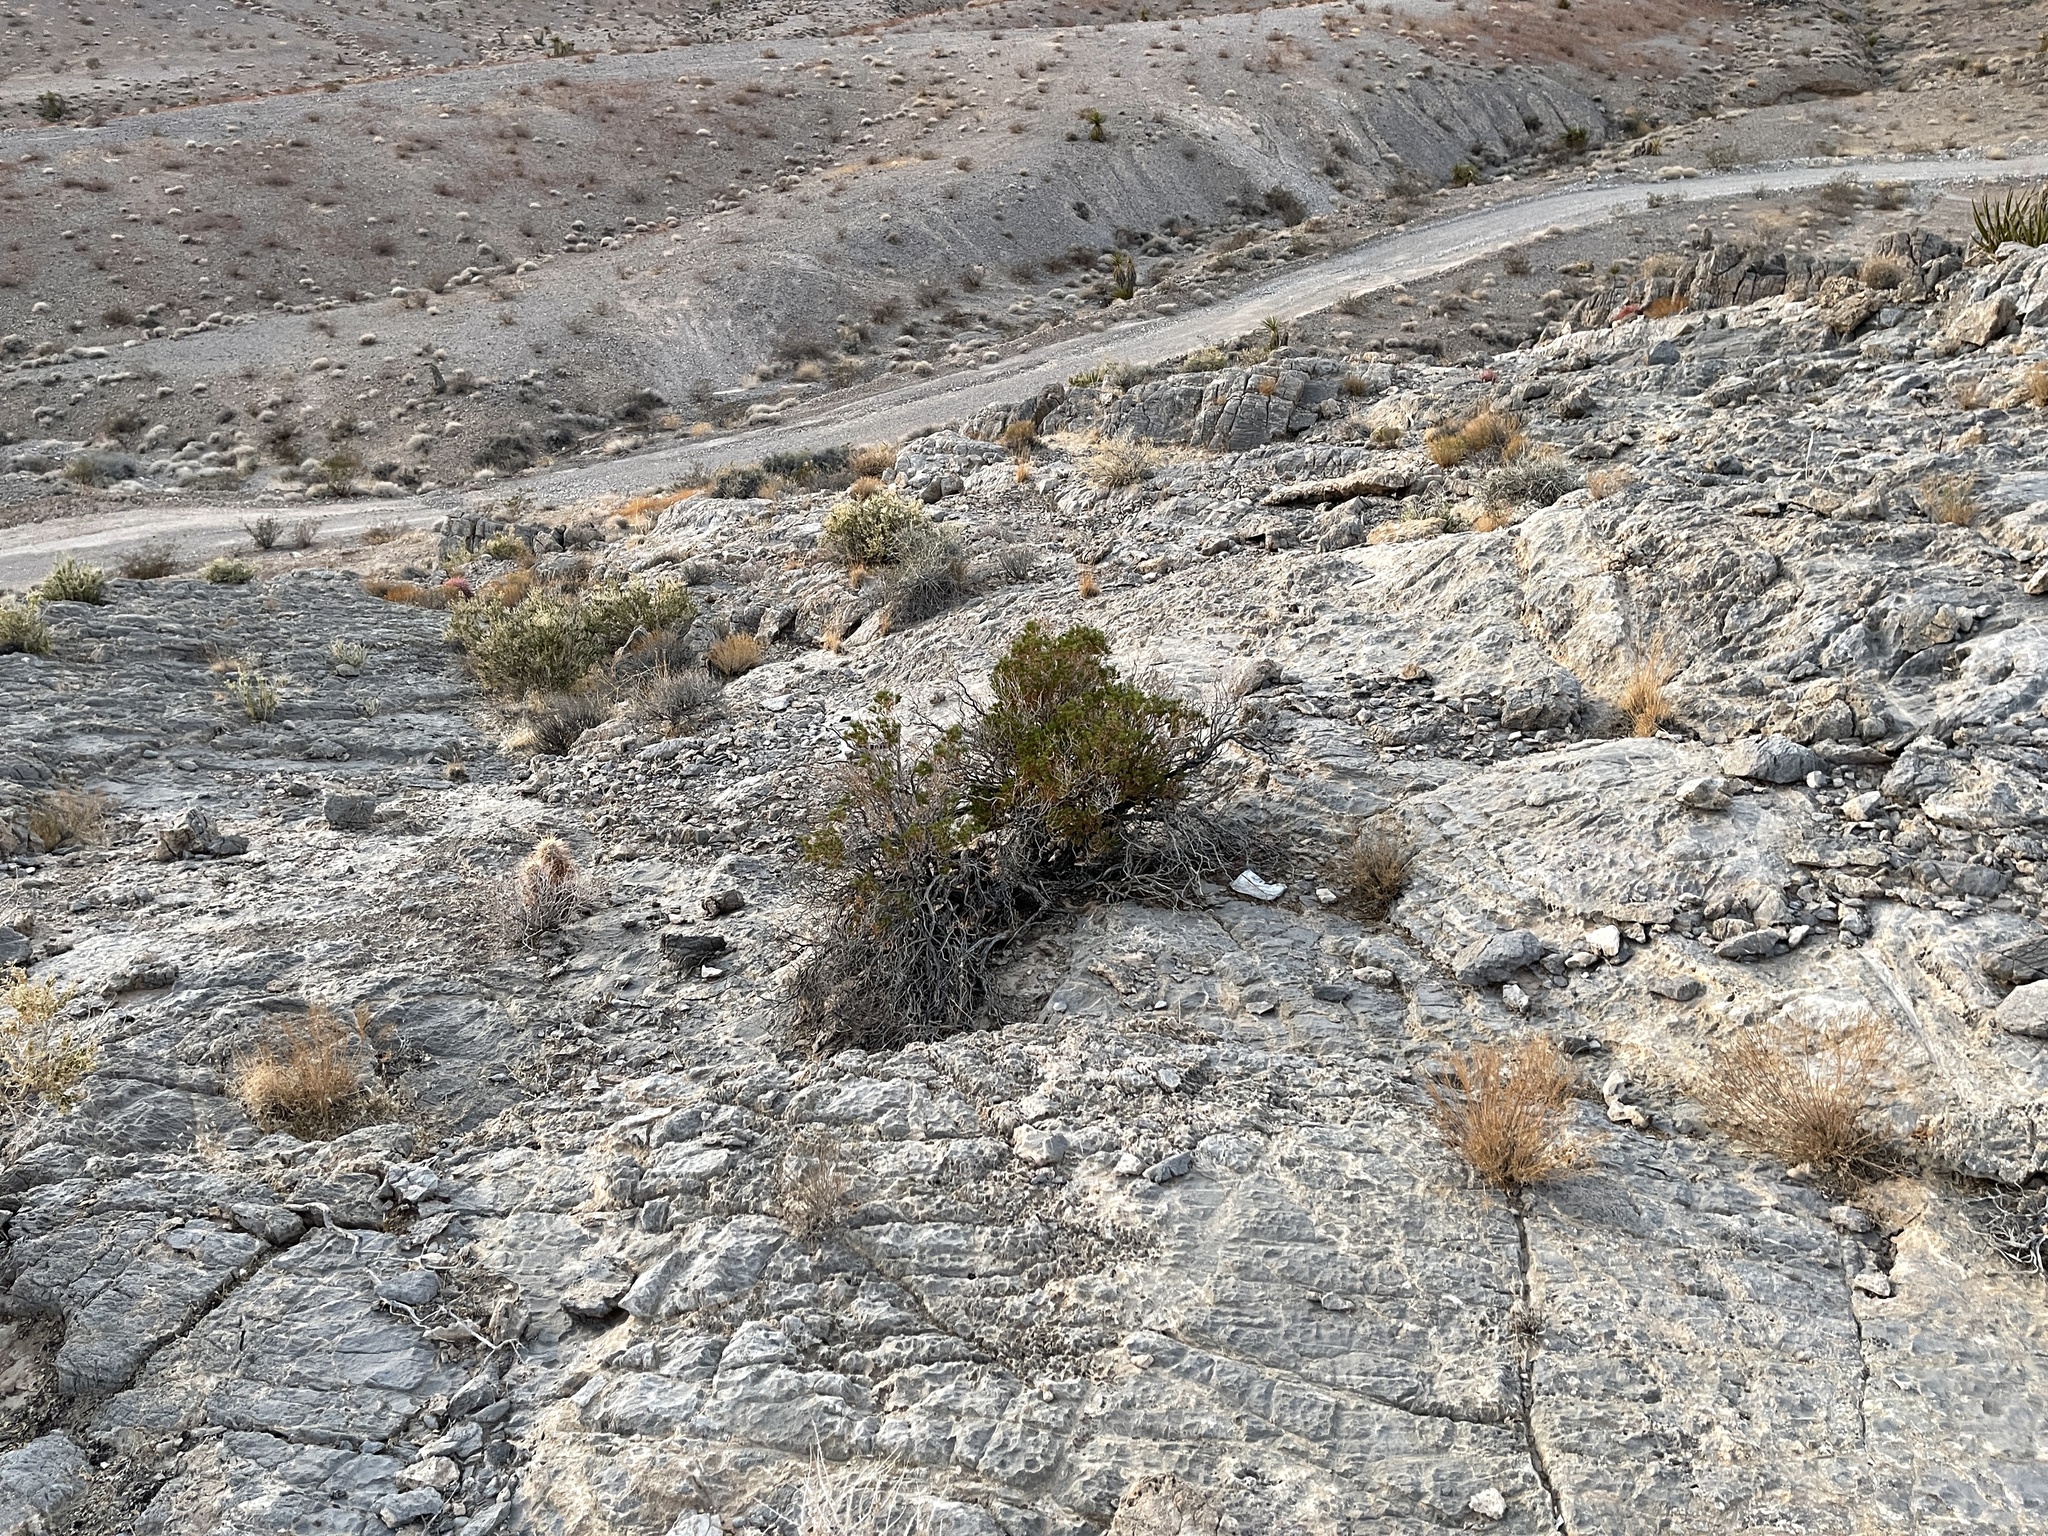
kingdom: Plantae
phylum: Tracheophyta
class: Magnoliopsida
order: Asterales
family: Asteraceae
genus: Peucephyllum
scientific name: Peucephyllum schottii
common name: Pygmy-cedar
